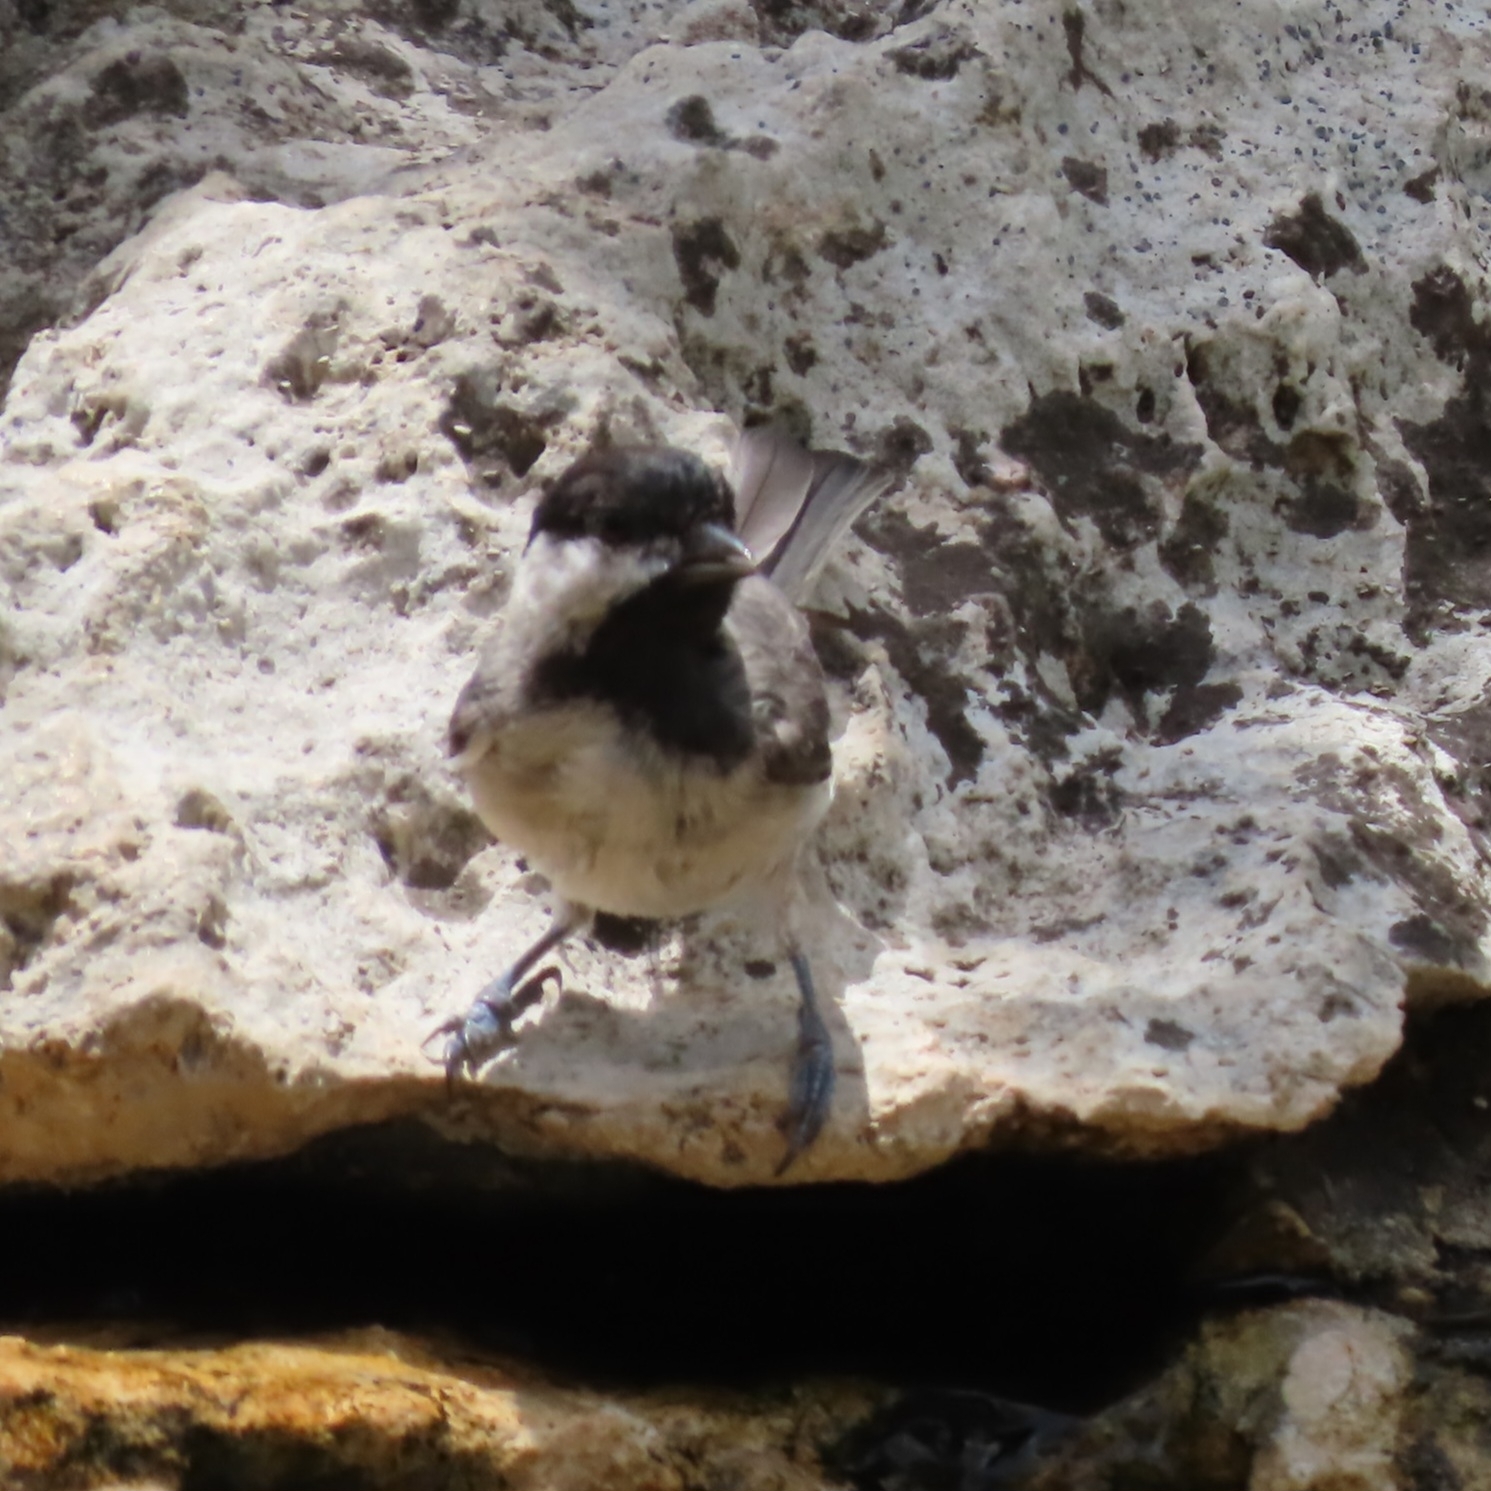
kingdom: Animalia
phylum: Chordata
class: Aves
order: Passeriformes
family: Paridae
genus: Poecile
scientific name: Poecile carolinensis
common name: Carolina chickadee
